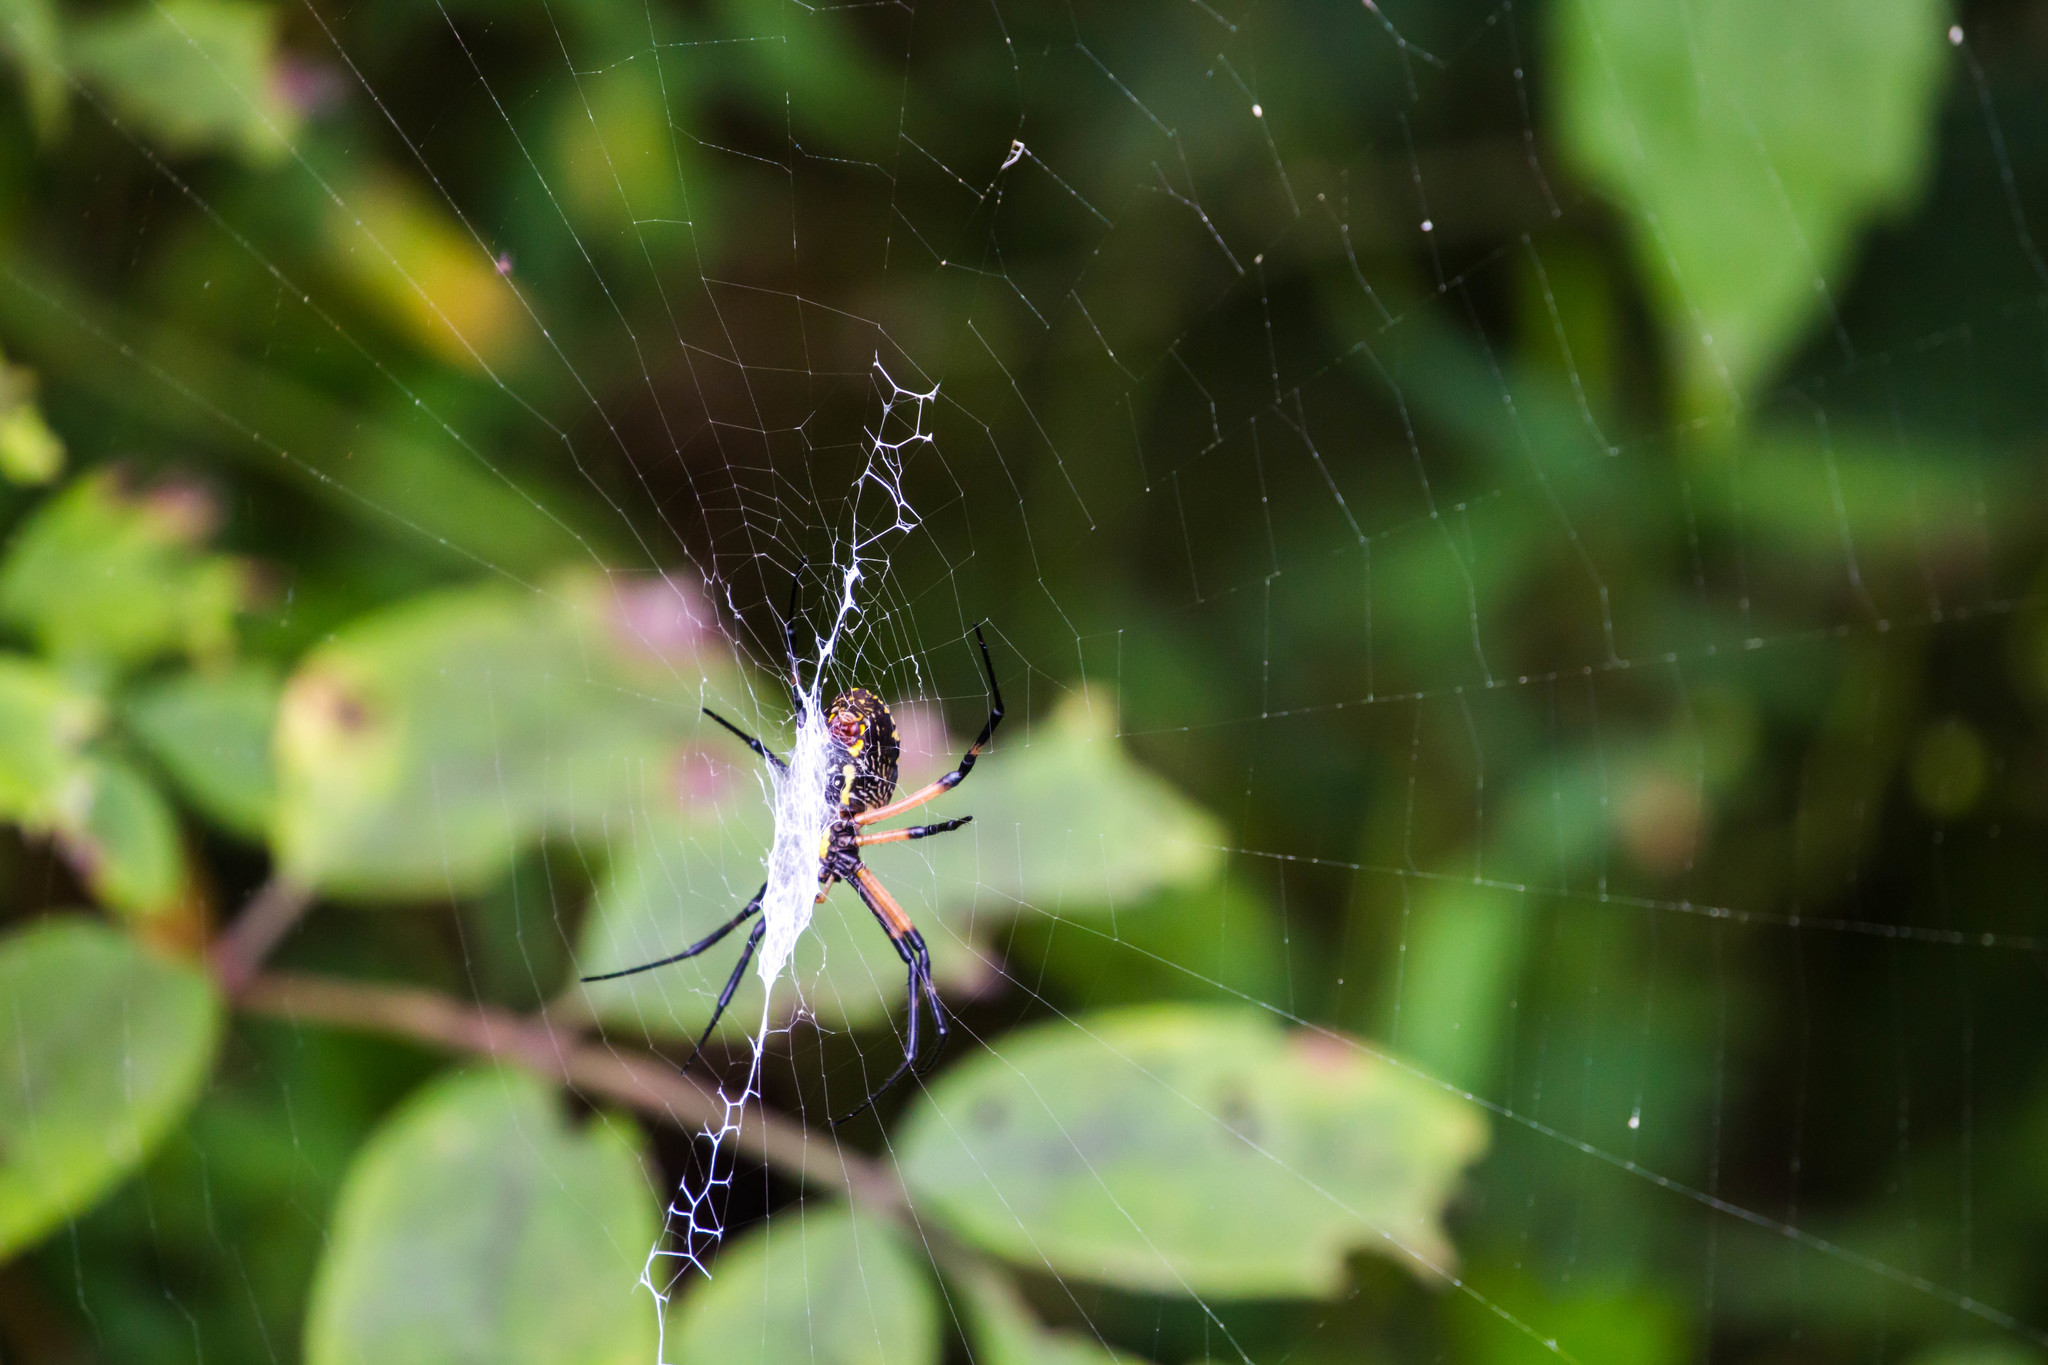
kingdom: Animalia
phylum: Arthropoda
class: Arachnida
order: Araneae
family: Araneidae
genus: Argiope
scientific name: Argiope aurantia
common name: Orb weavers
